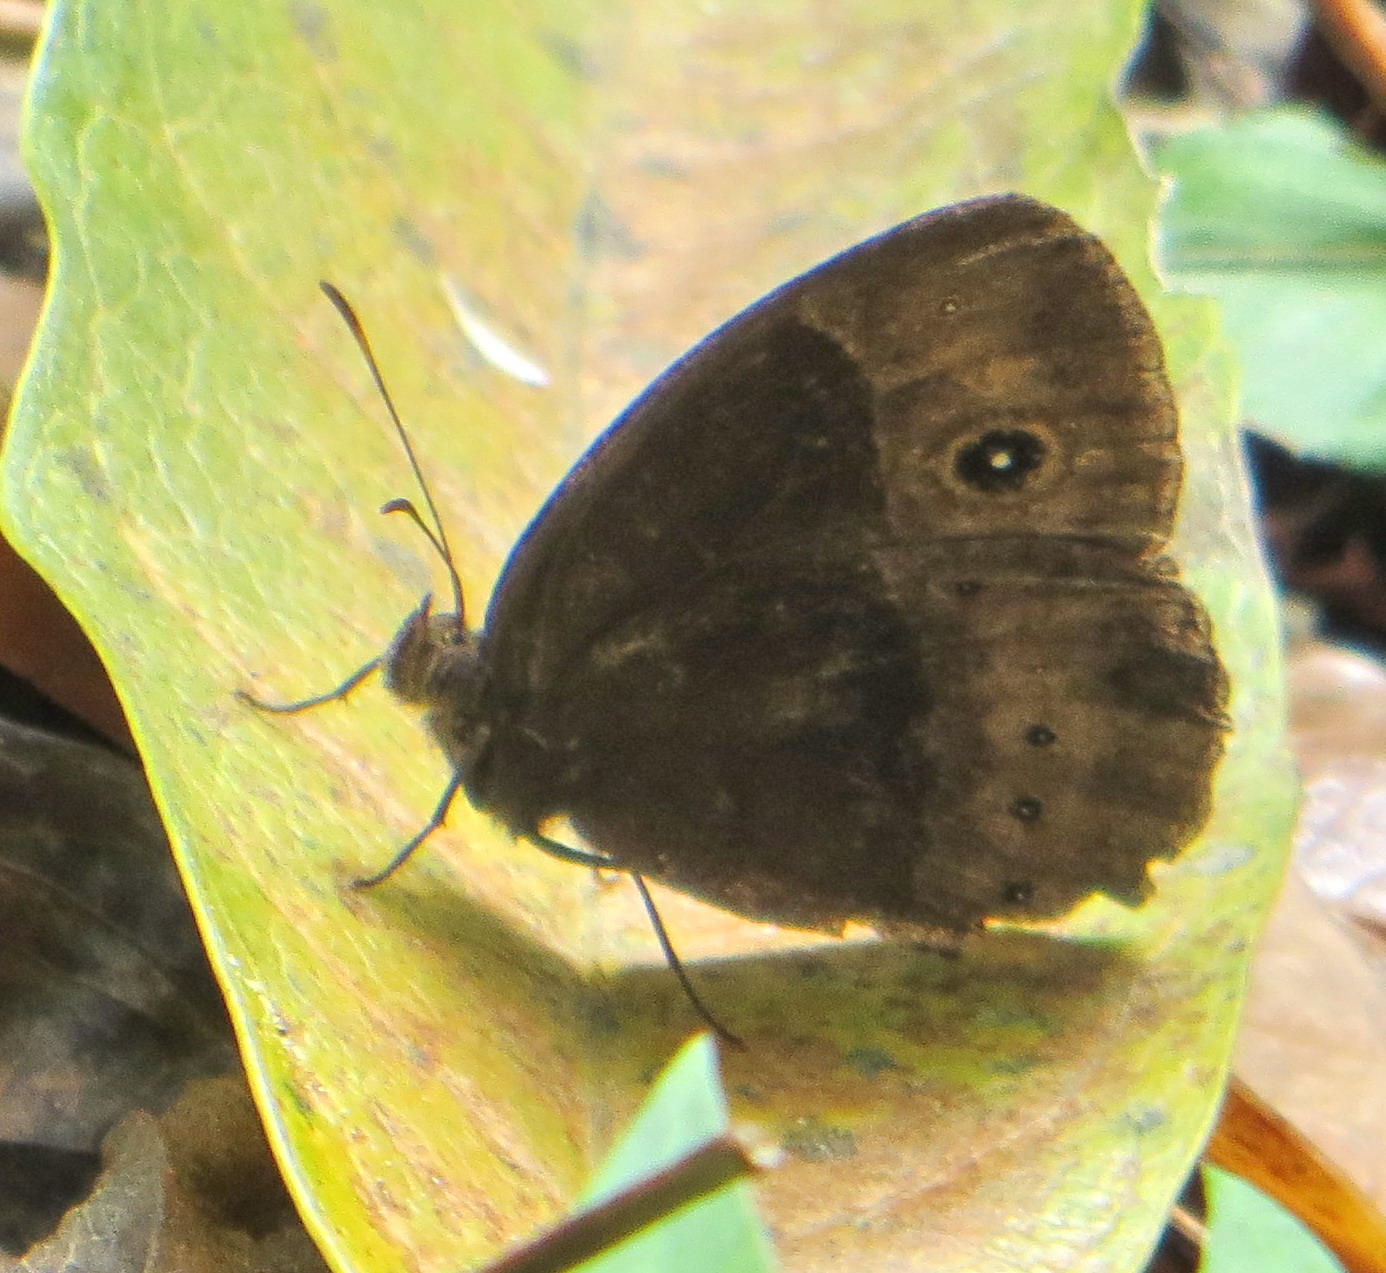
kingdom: Animalia
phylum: Arthropoda
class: Insecta
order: Lepidoptera
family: Nymphalidae
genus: Mycalesis
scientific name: Mycalesis rhacotis
